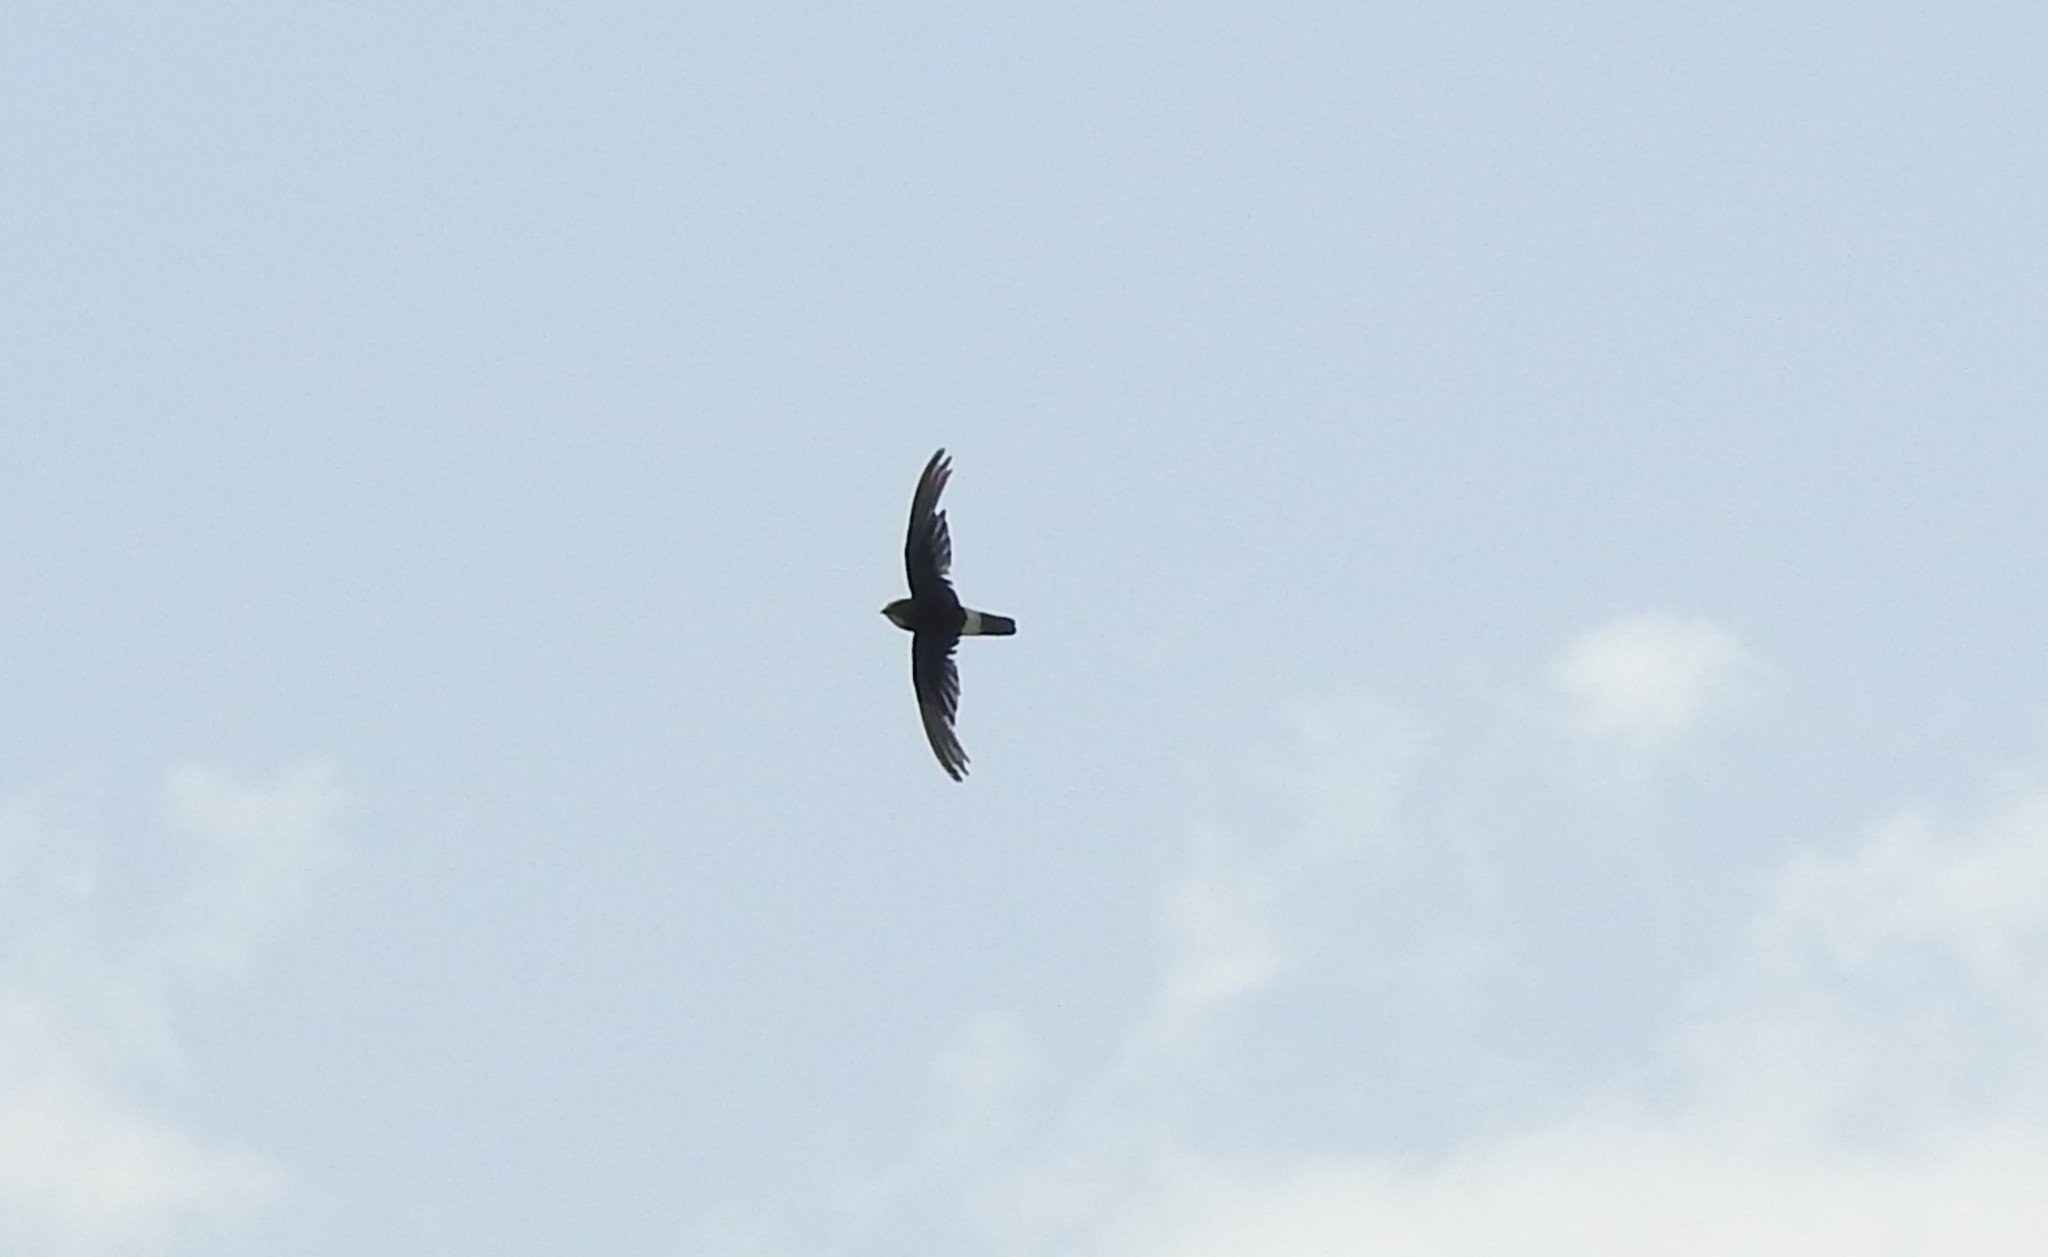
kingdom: Animalia
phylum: Chordata
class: Aves
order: Apodiformes
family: Apodidae
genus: Apus
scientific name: Apus affinis
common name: Little swift
